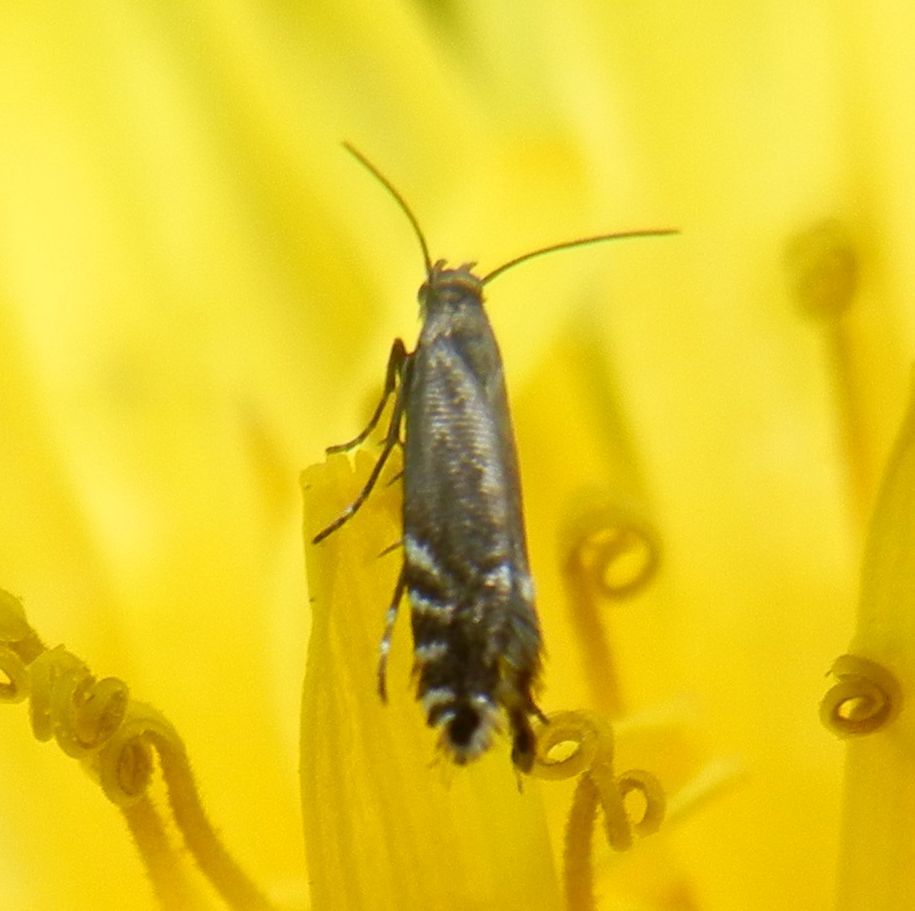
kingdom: Animalia
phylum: Arthropoda
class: Insecta
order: Lepidoptera
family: Glyphipterigidae
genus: Glyphipterix
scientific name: Glyphipterix simpliciella
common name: Cocksfoot moth
